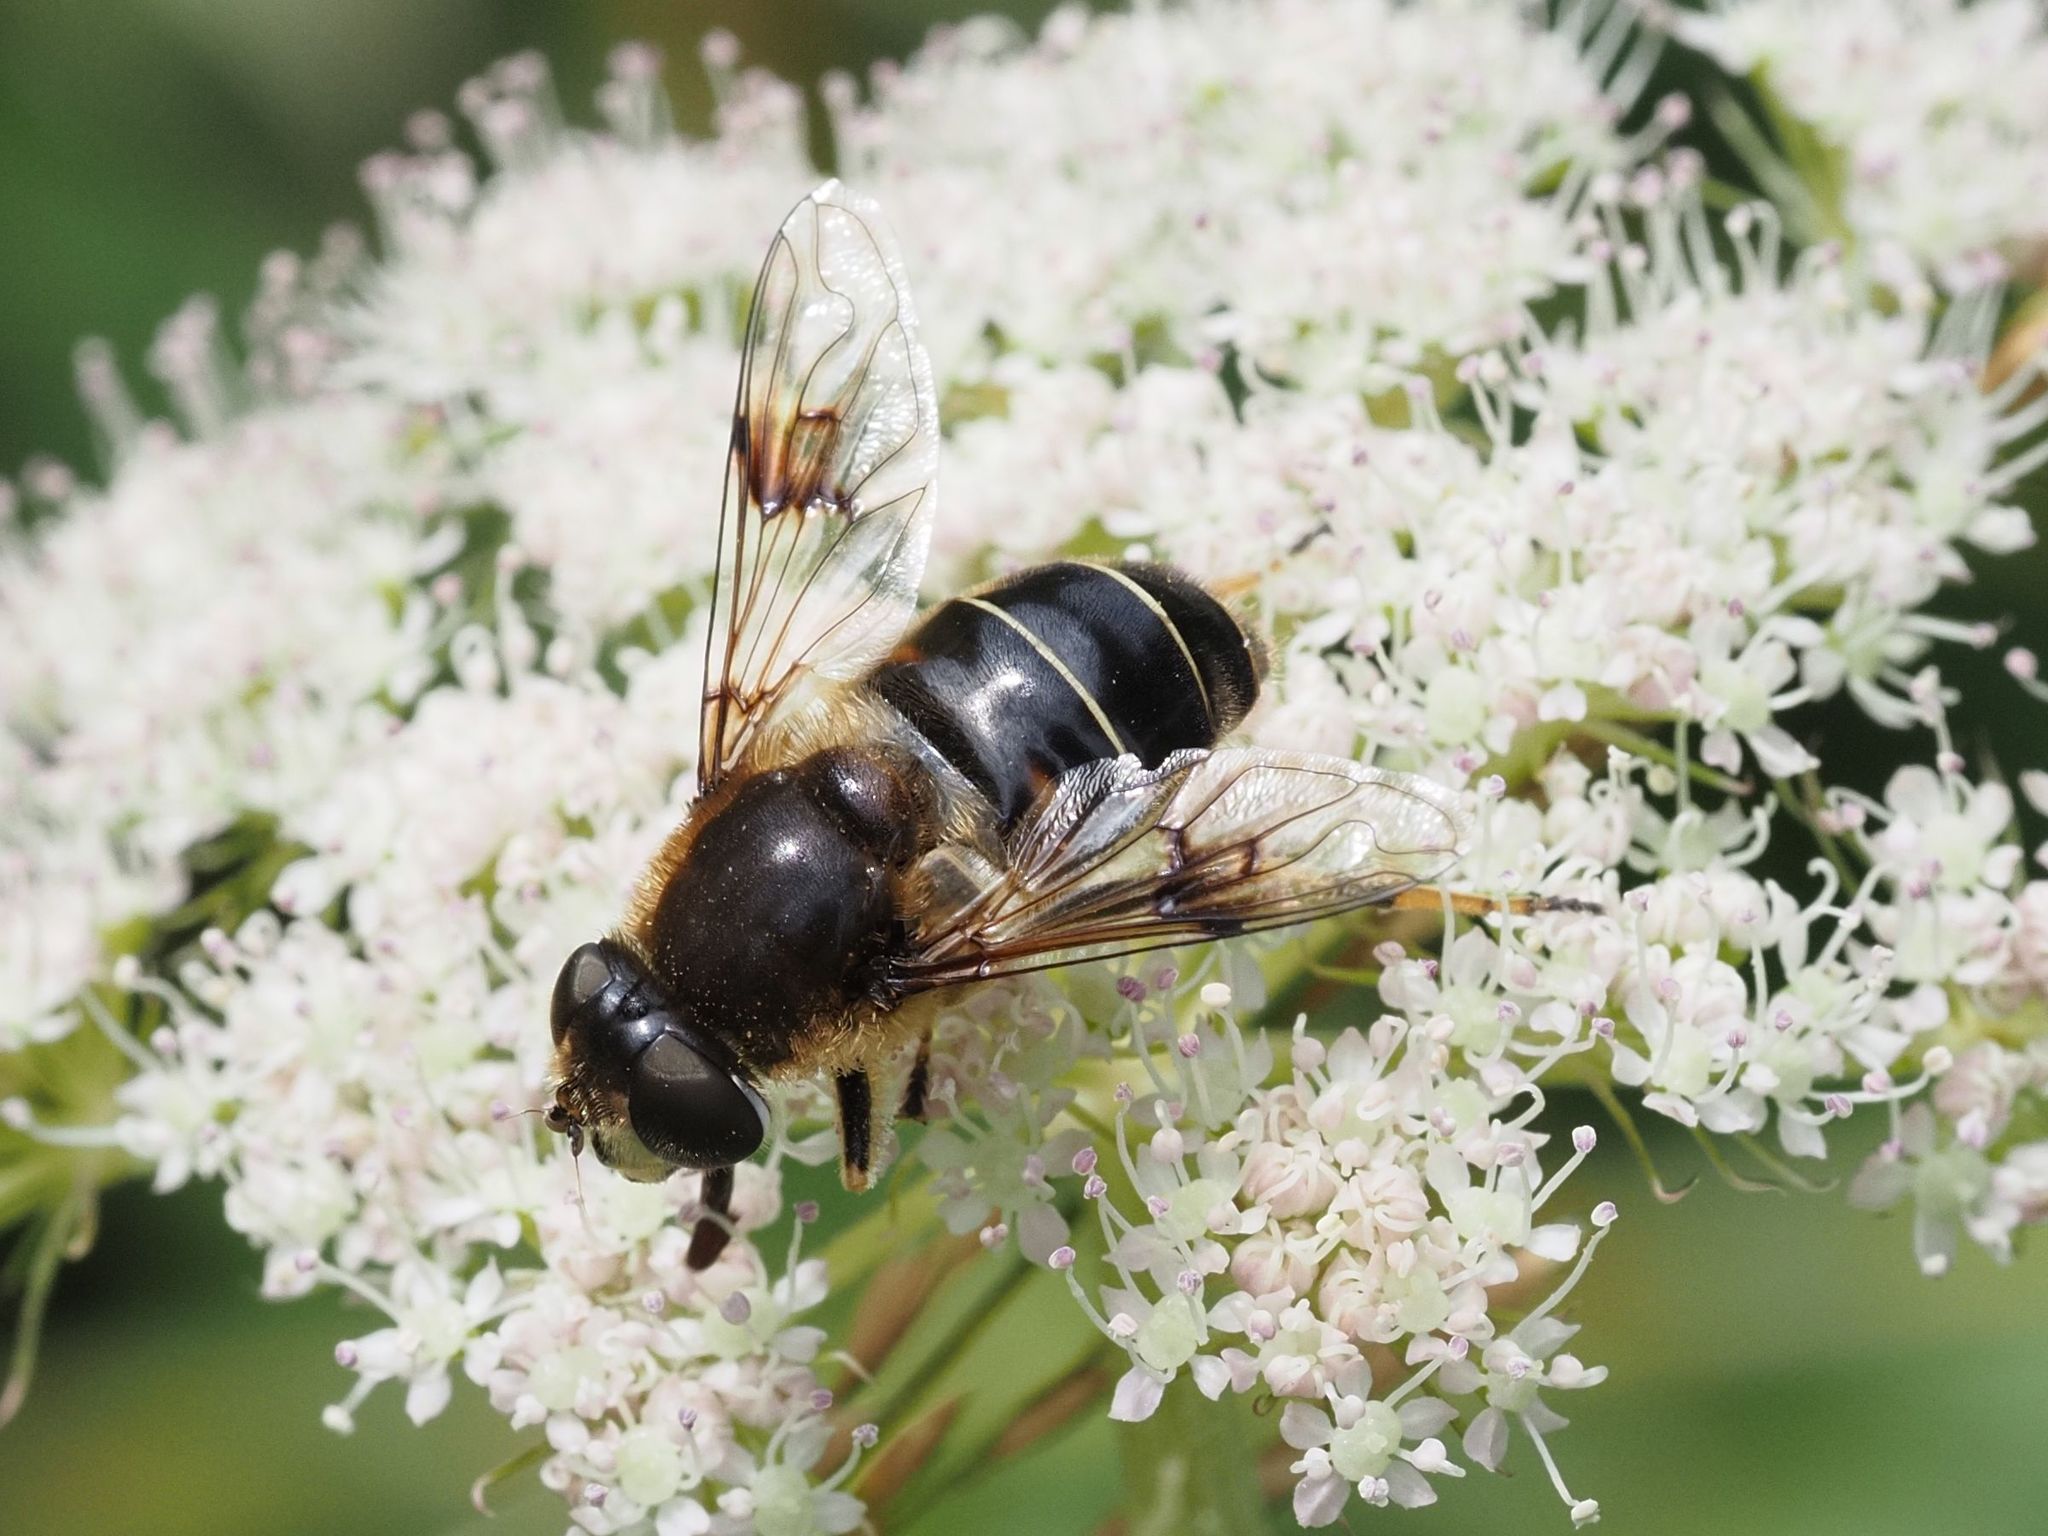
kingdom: Animalia
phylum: Arthropoda
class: Insecta
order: Diptera
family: Syrphidae
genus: Eristalis
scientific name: Eristalis rupium
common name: Hover fly
